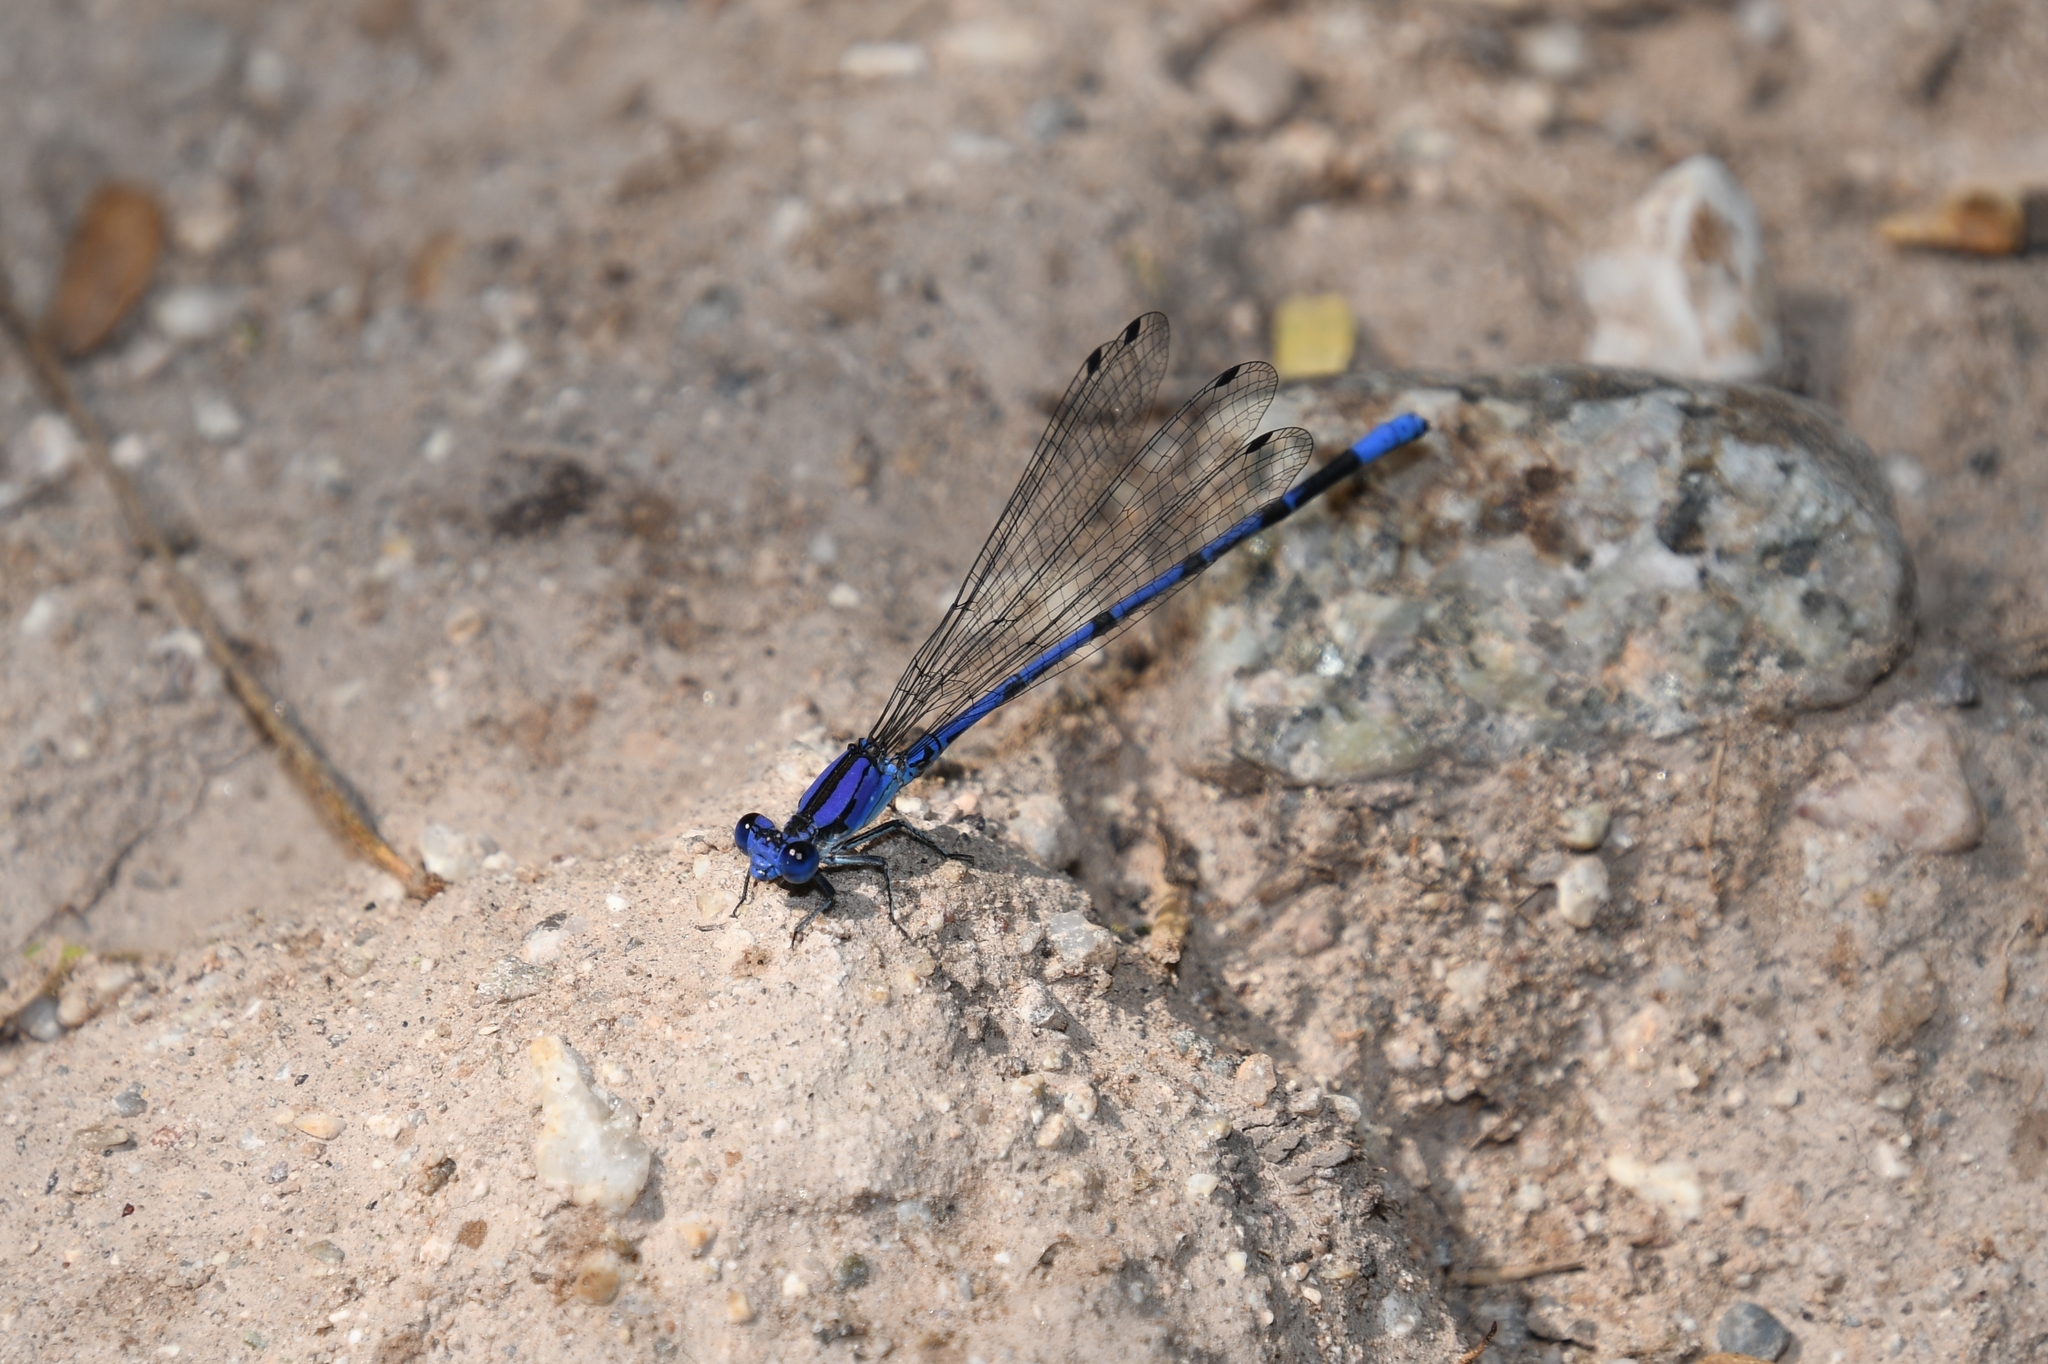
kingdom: Animalia
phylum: Arthropoda
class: Insecta
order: Odonata
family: Coenagrionidae
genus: Argia
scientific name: Argia extranea
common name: Spine-tipped dancer
